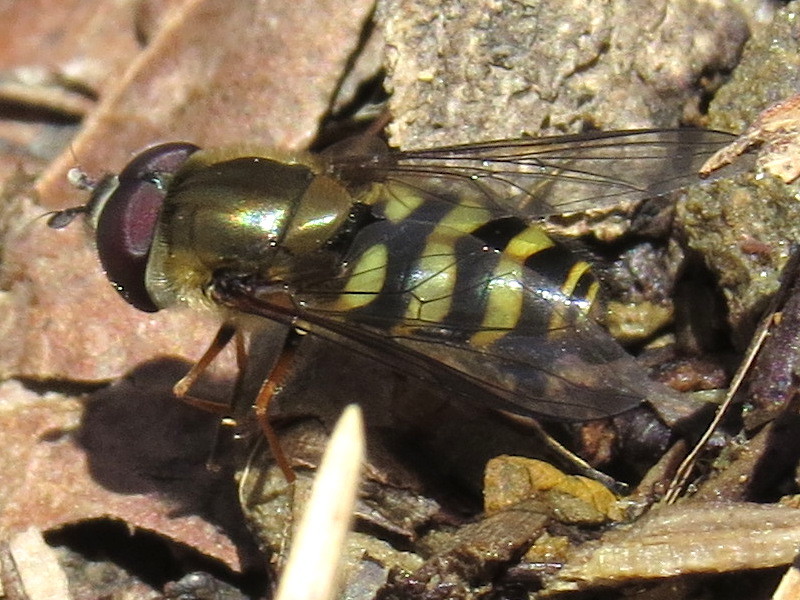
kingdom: Animalia
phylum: Arthropoda
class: Insecta
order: Diptera
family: Syrphidae
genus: Syrphus
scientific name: Syrphus torvus
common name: Hairy-eyed flower fly
